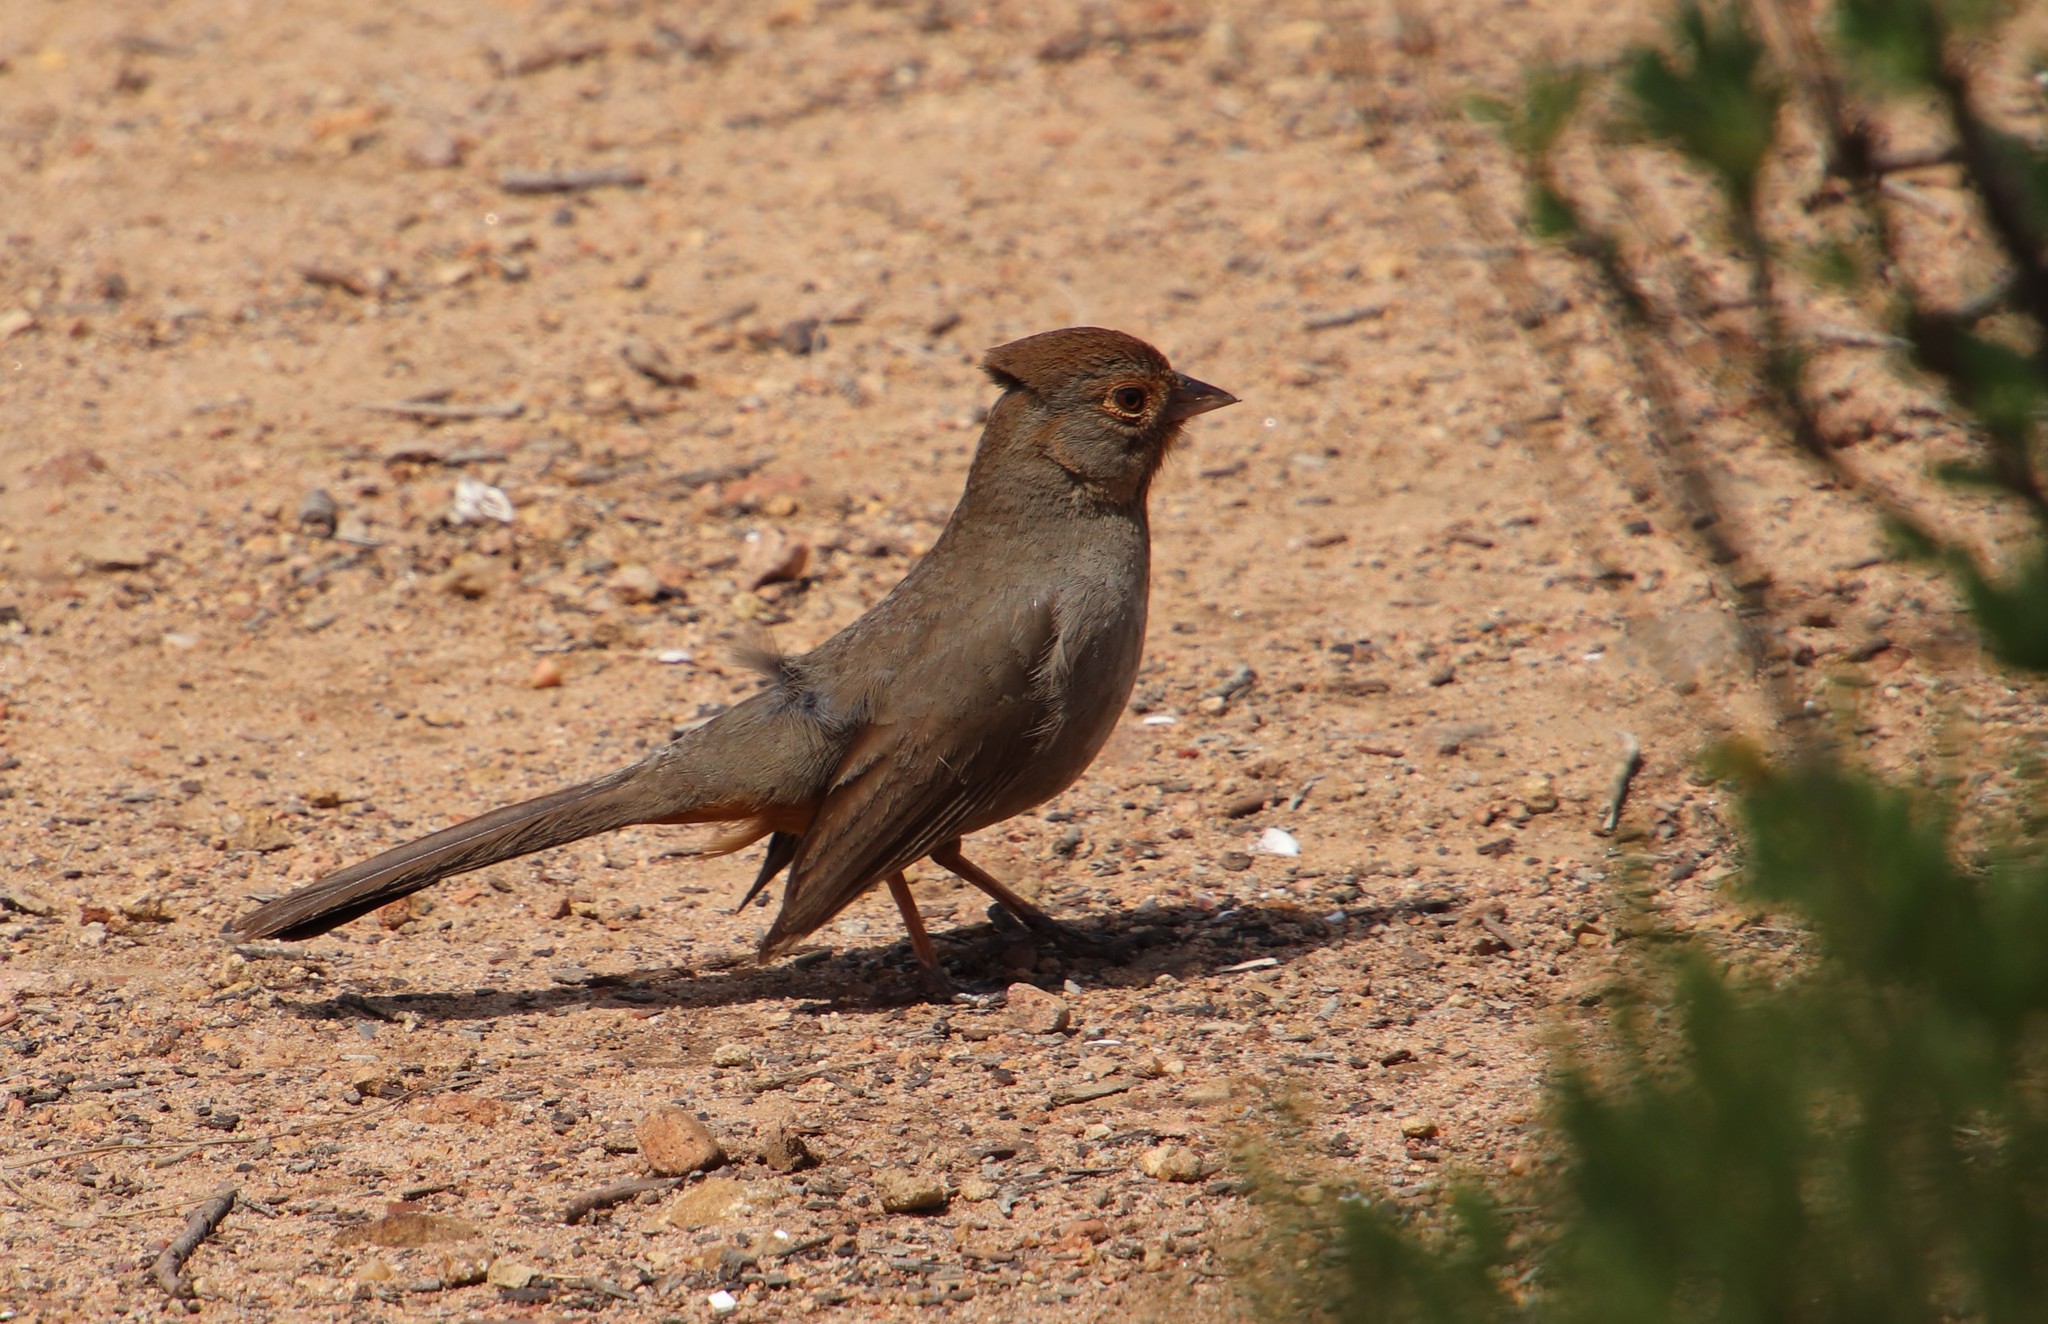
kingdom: Animalia
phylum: Chordata
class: Aves
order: Passeriformes
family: Passerellidae
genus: Melozone
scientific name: Melozone crissalis
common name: California towhee
